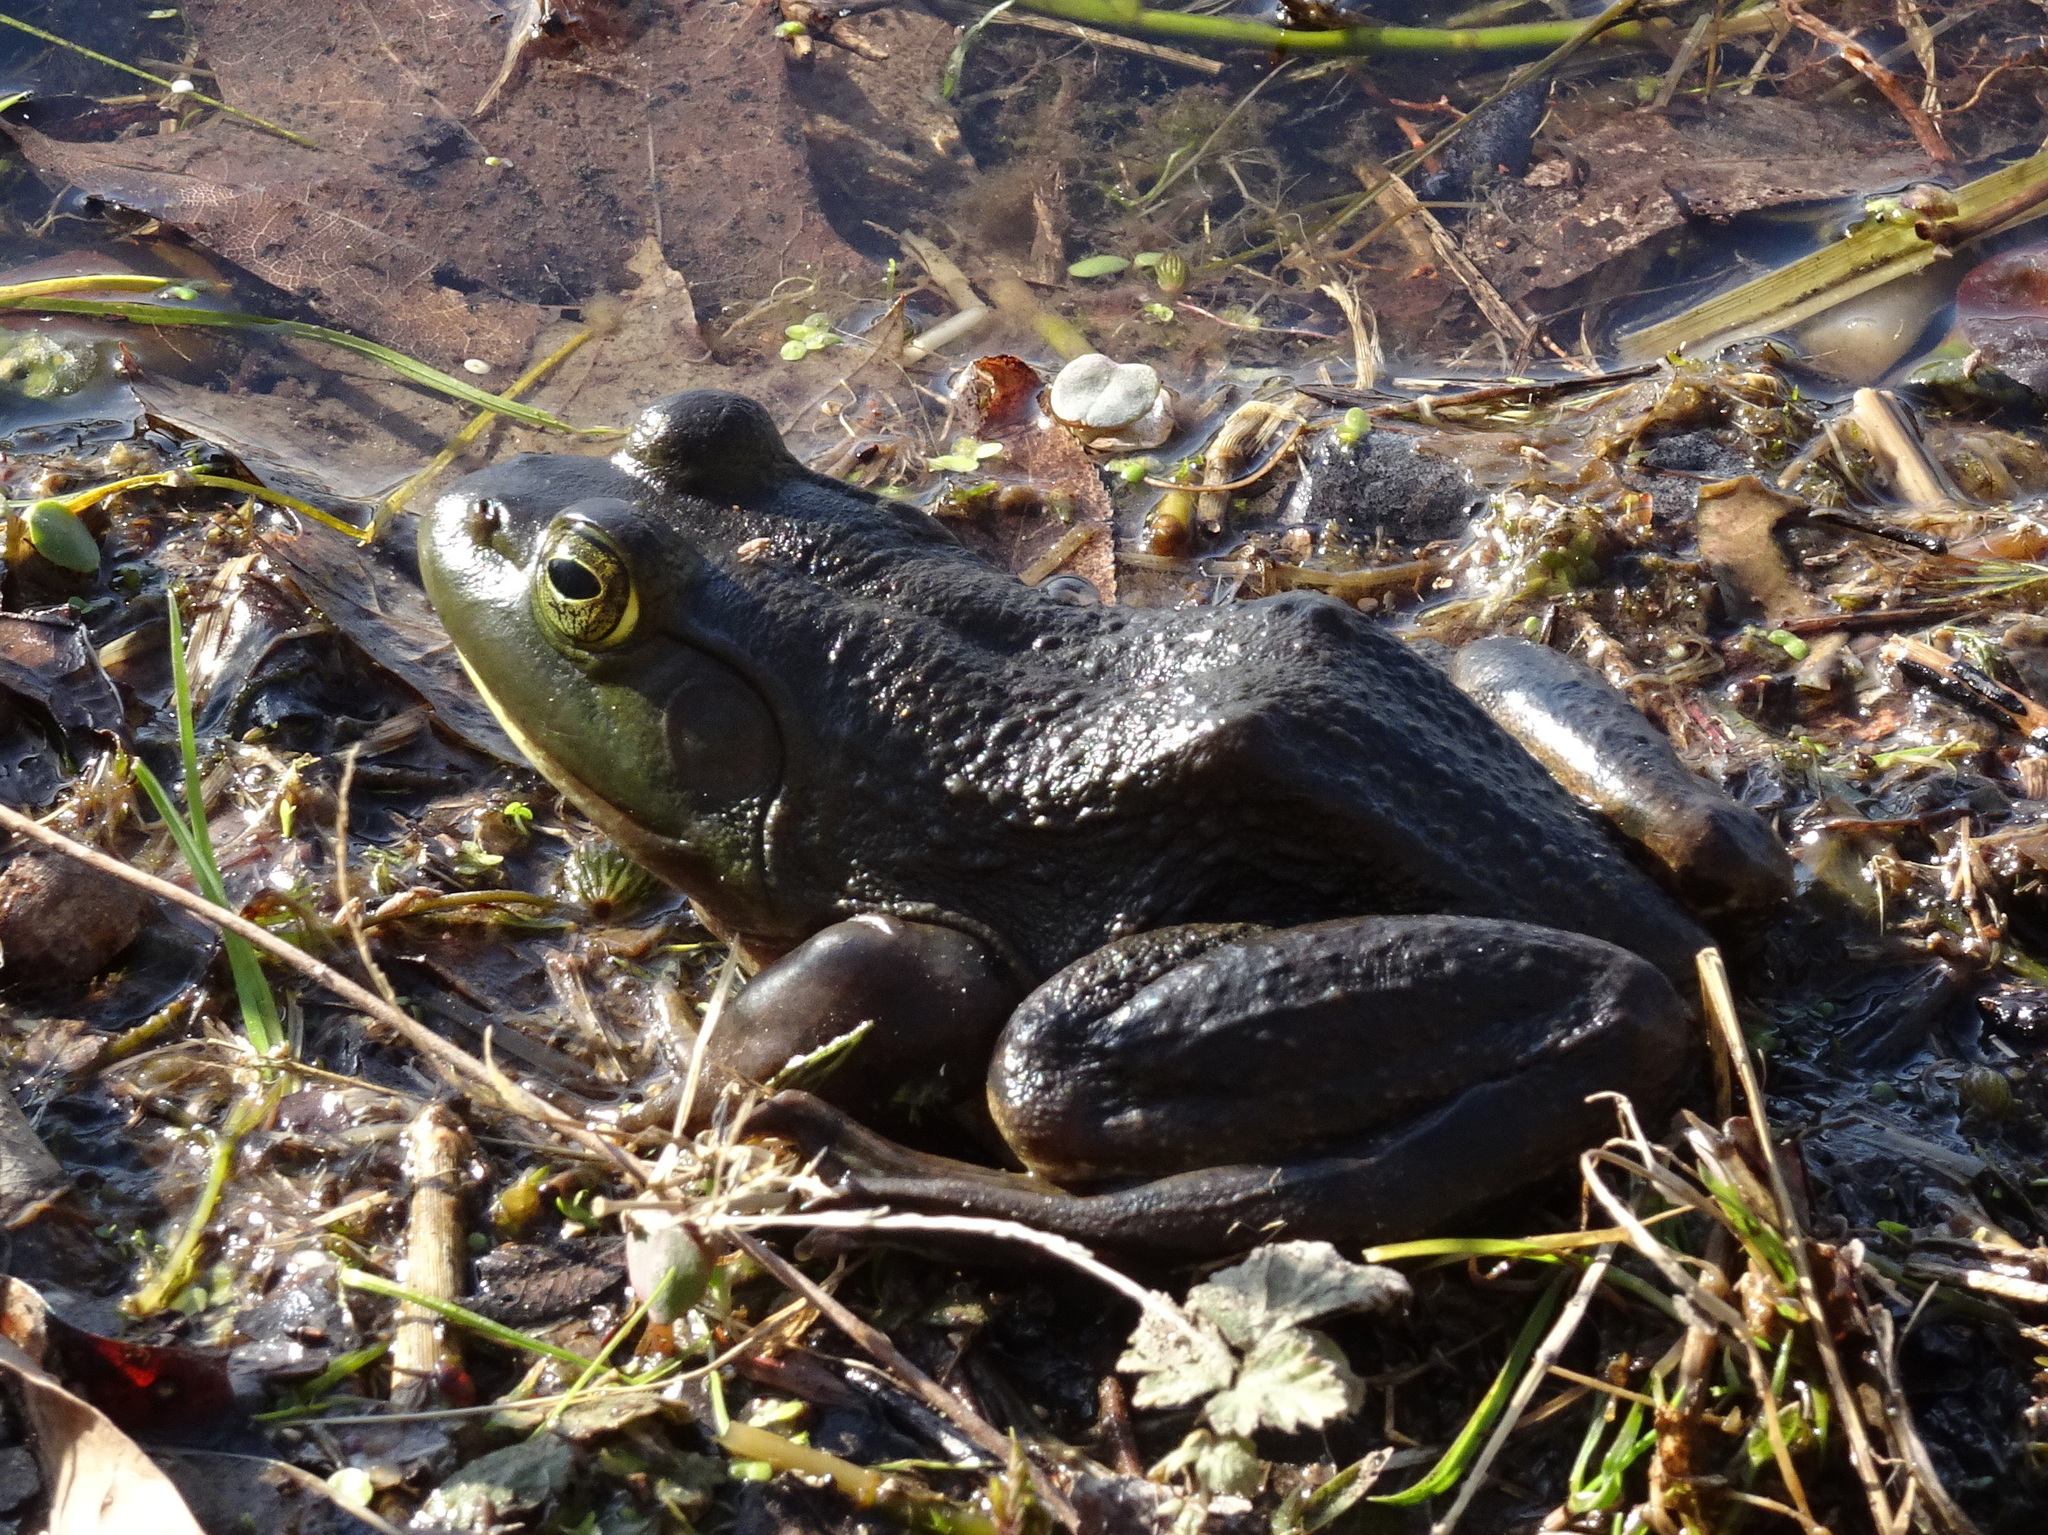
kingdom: Animalia
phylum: Chordata
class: Amphibia
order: Anura
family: Ranidae
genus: Lithobates
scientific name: Lithobates catesbeianus
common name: American bullfrog
